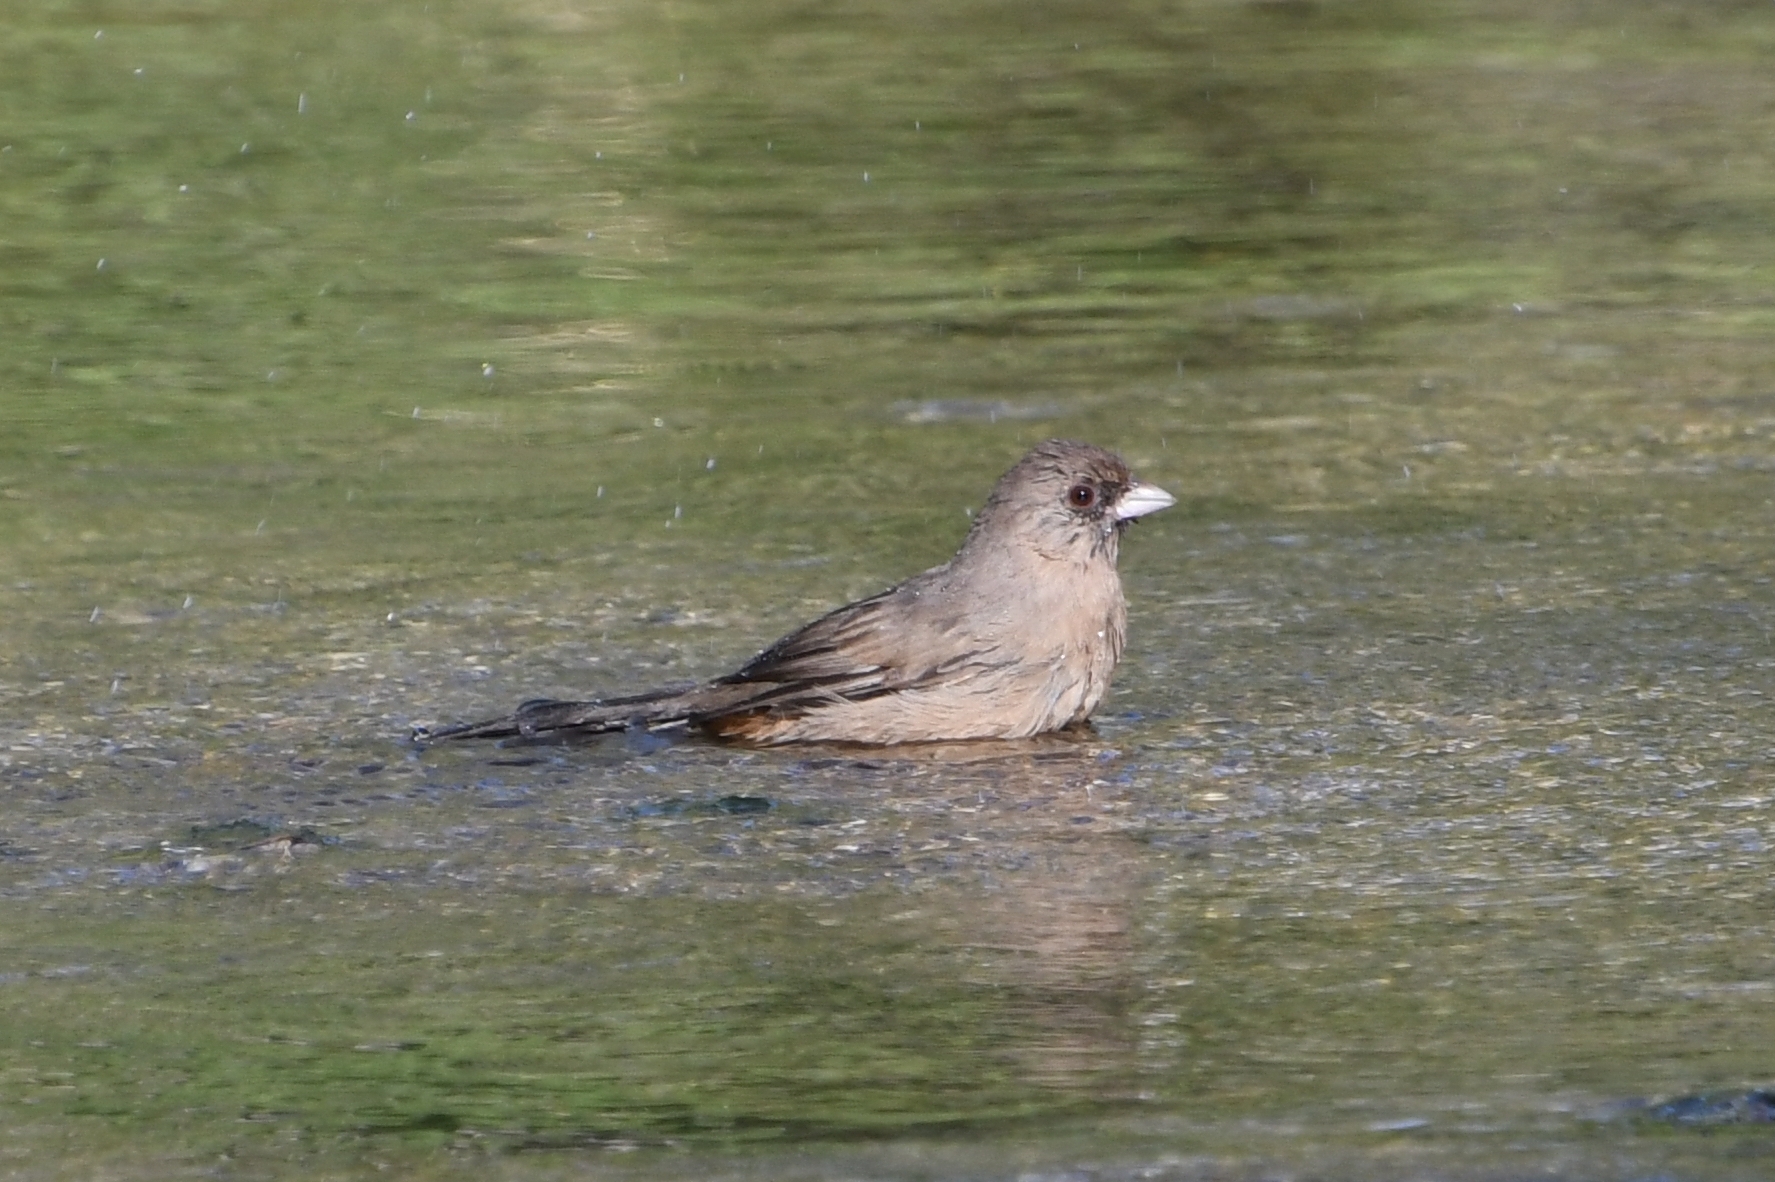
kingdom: Animalia
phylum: Chordata
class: Aves
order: Passeriformes
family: Passerellidae
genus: Melozone
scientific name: Melozone aberti
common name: Abert's towhee
